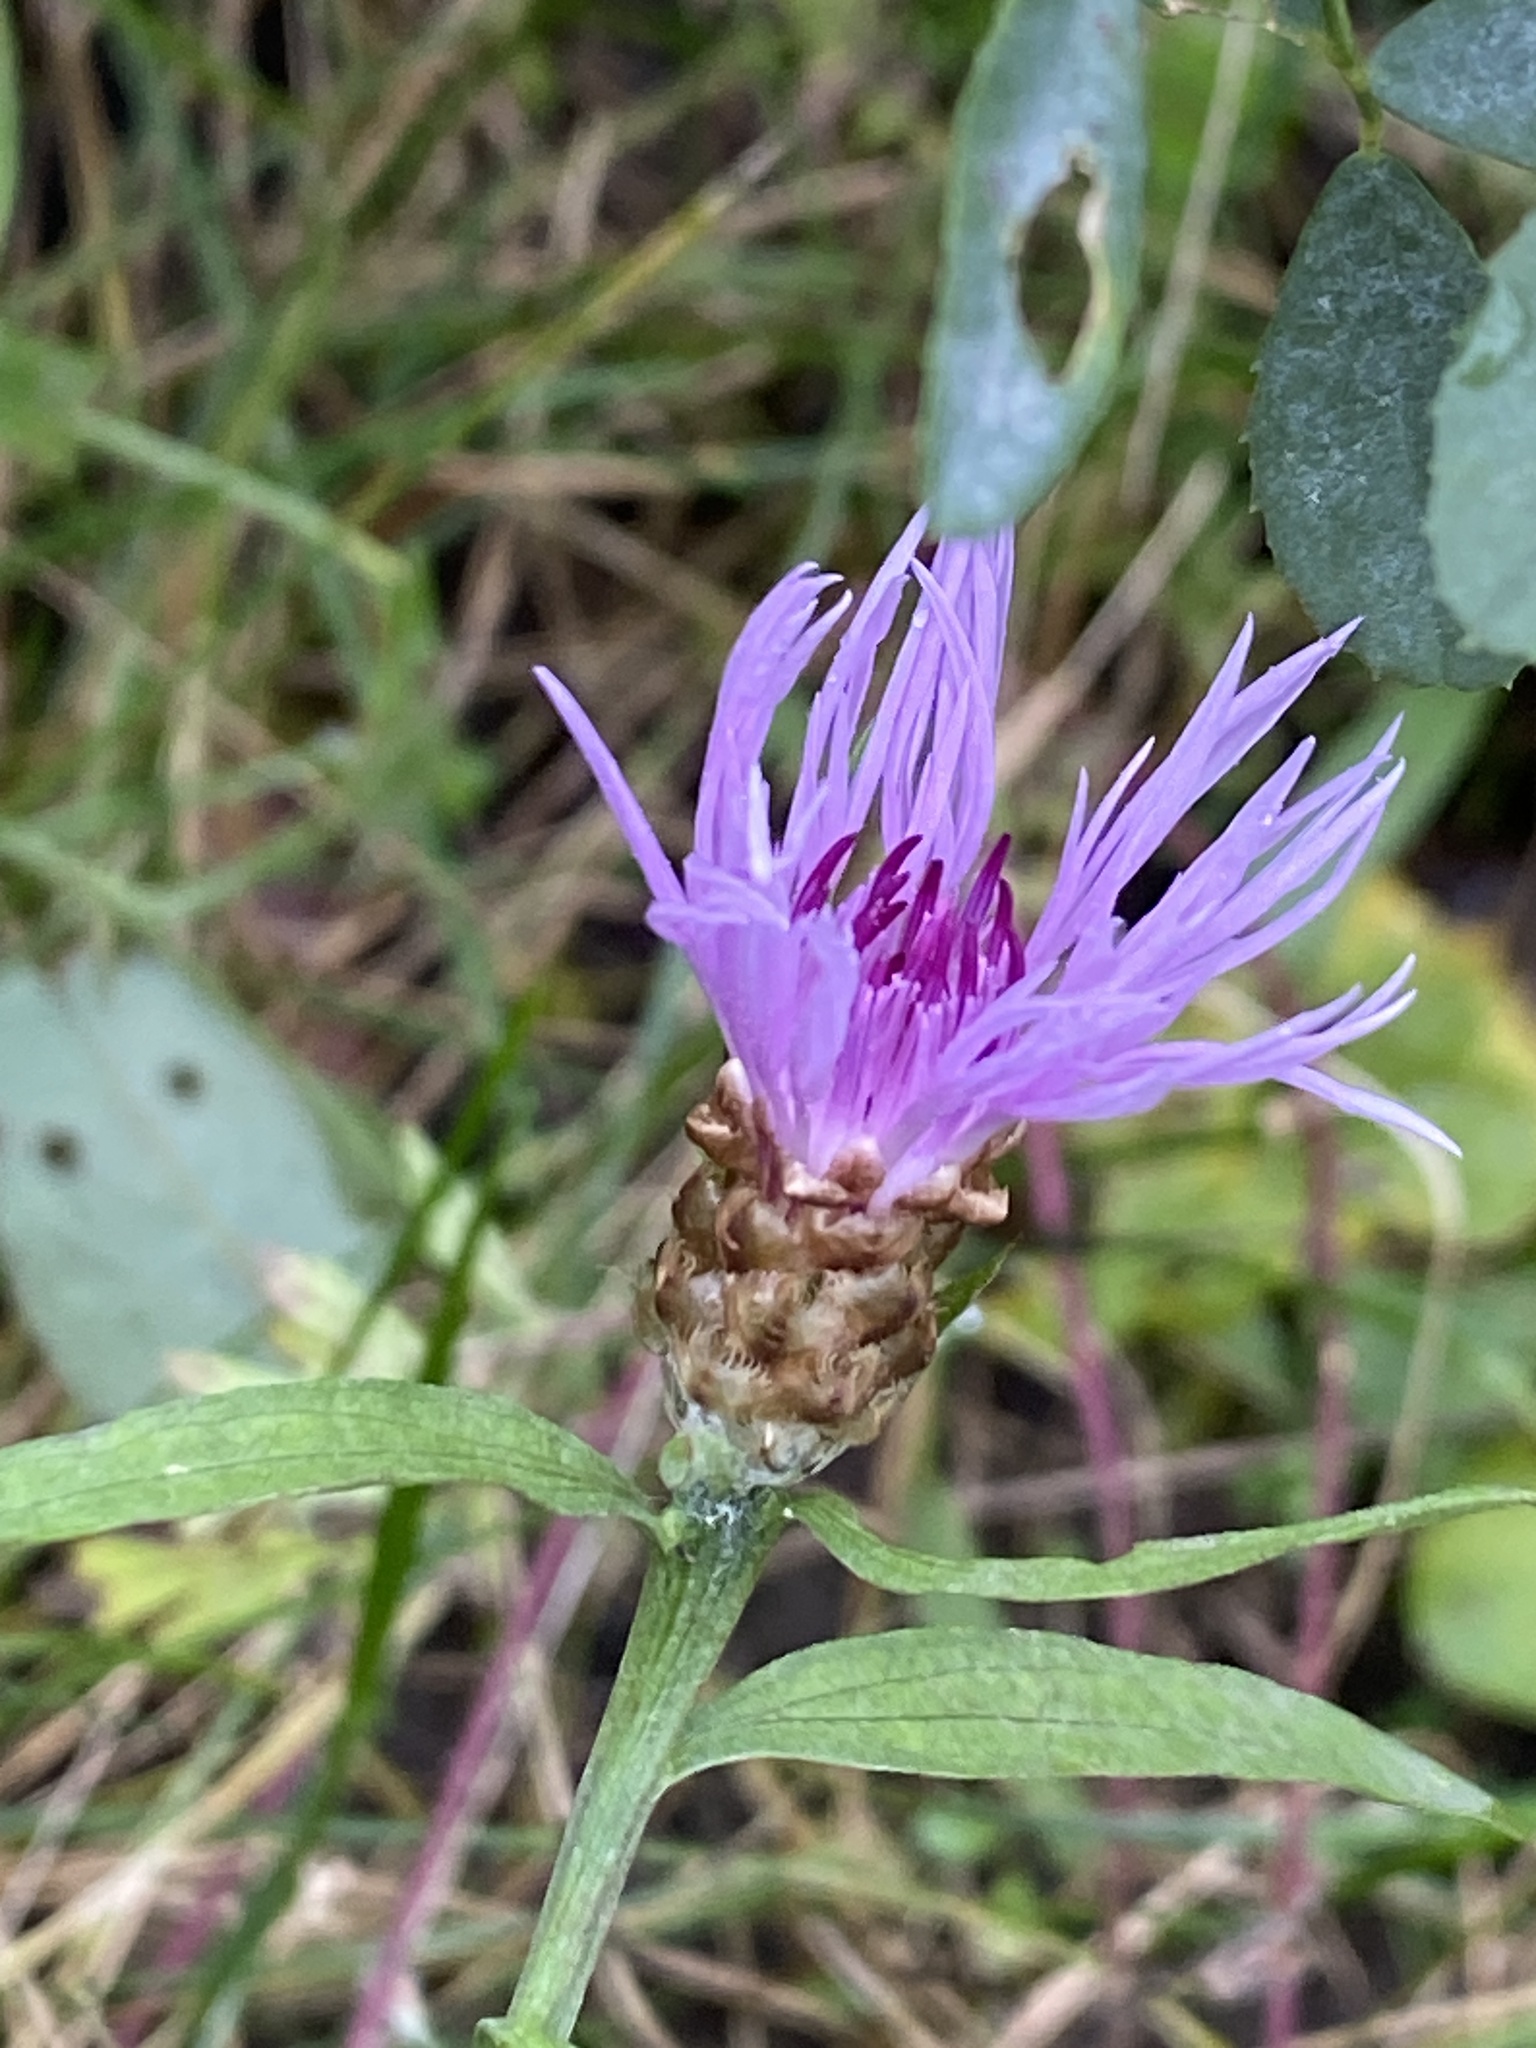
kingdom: Plantae
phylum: Tracheophyta
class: Magnoliopsida
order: Asterales
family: Asteraceae
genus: Centaurea
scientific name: Centaurea jacea
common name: Brown knapweed
